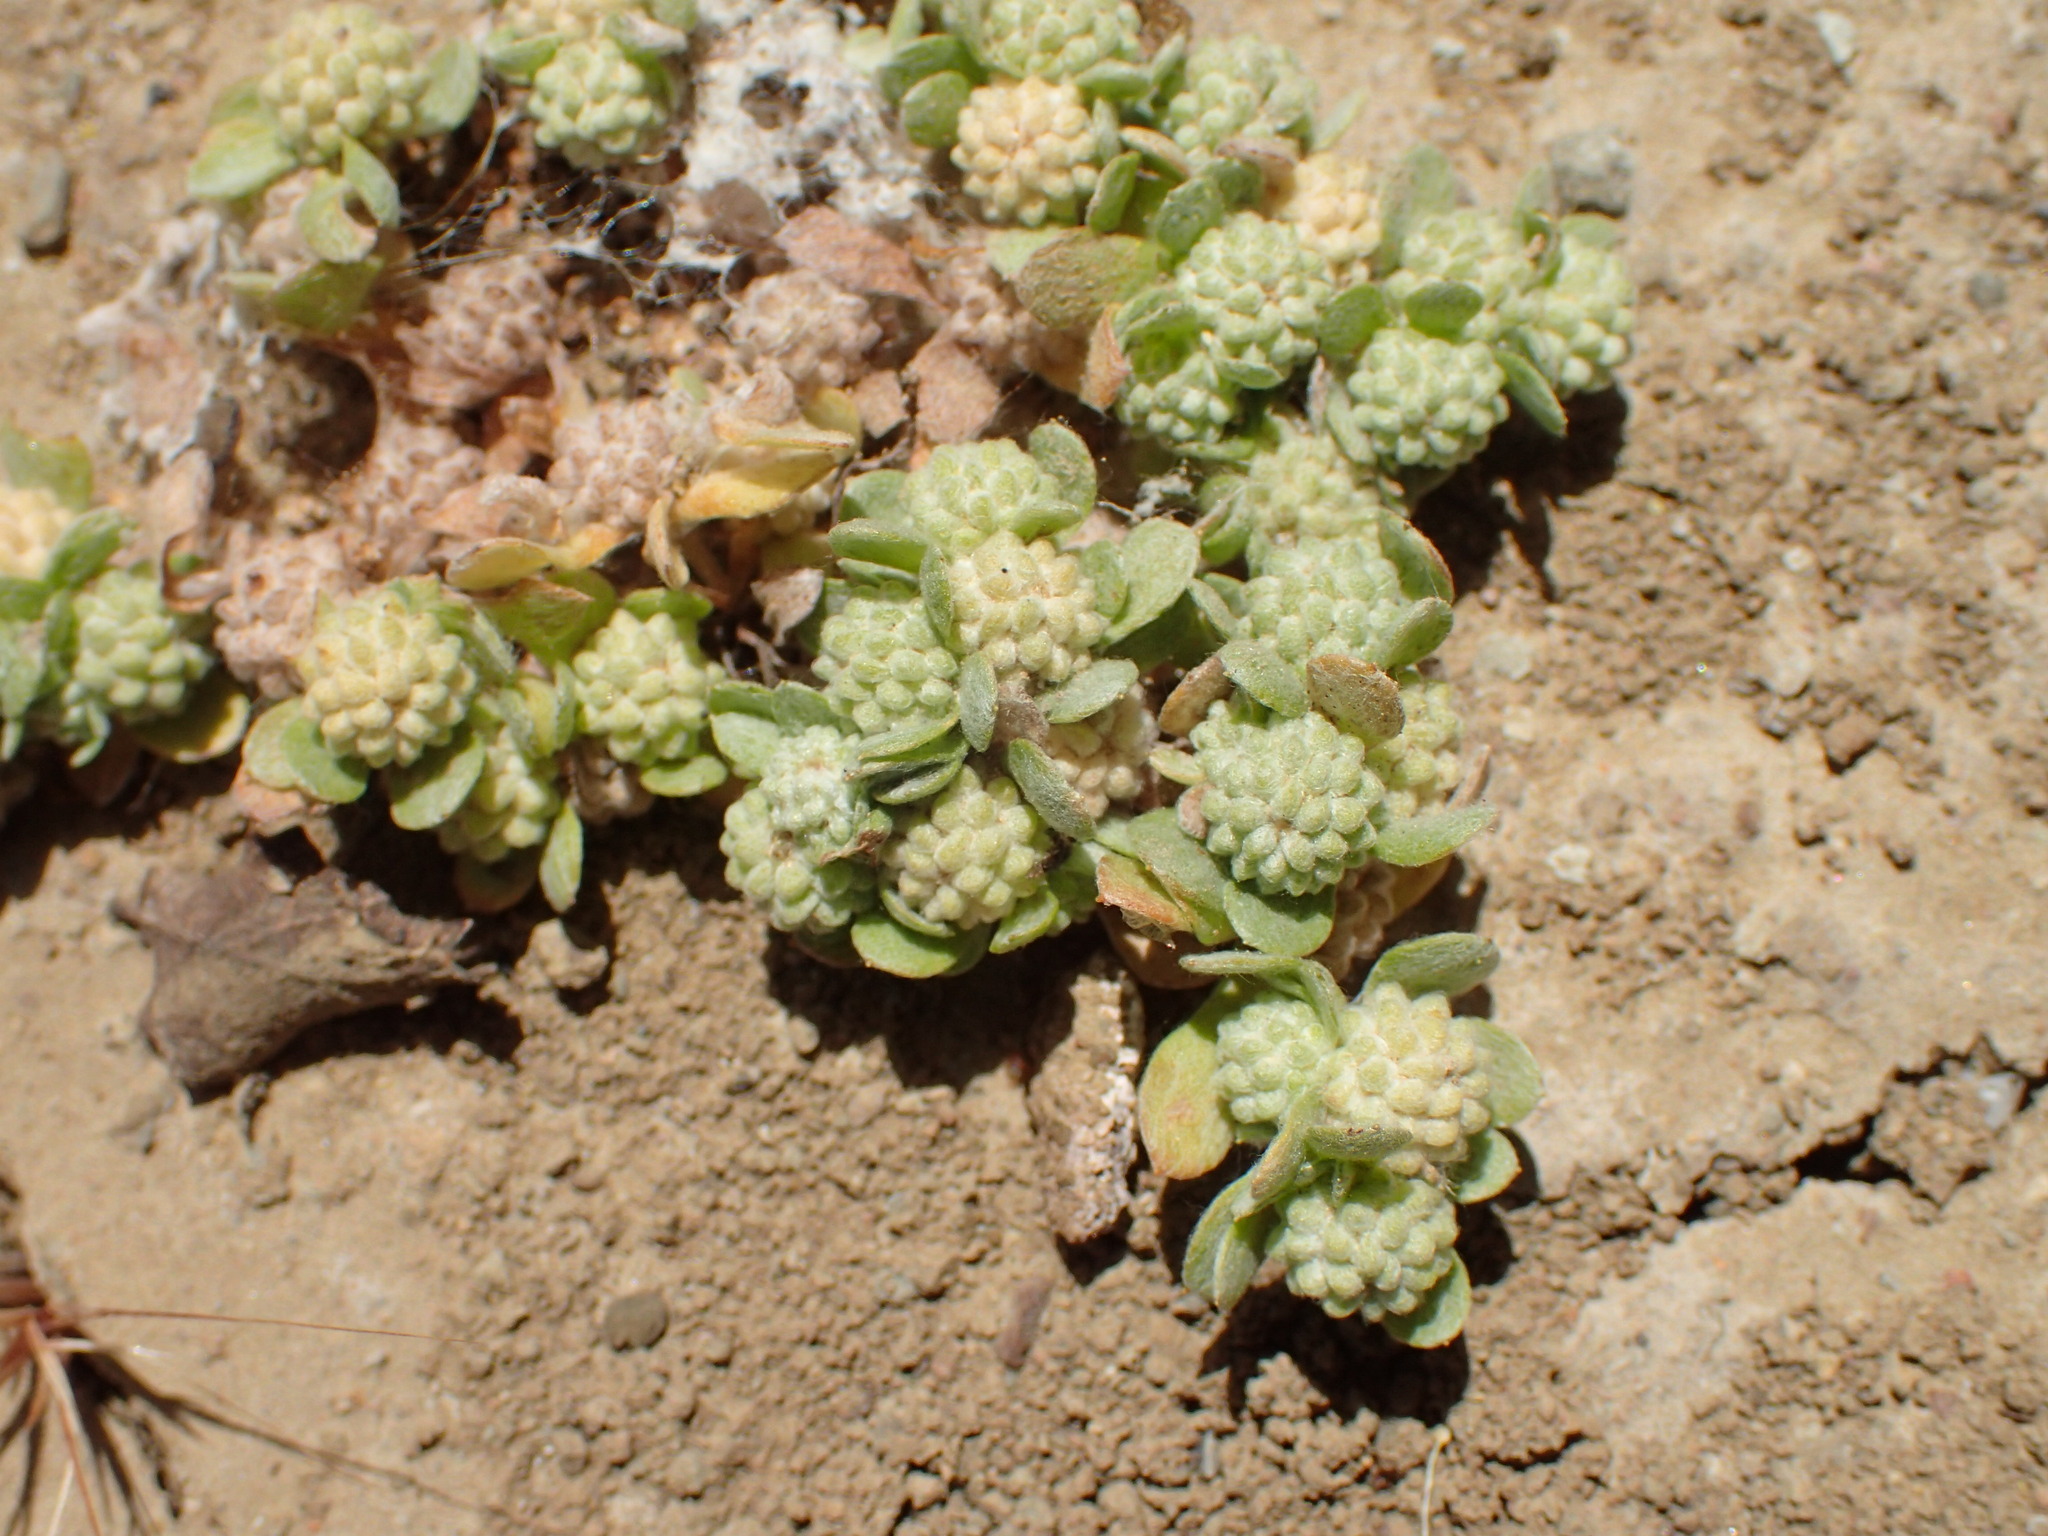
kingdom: Plantae
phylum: Tracheophyta
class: Magnoliopsida
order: Asterales
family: Asteraceae
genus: Psilocarphus
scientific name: Psilocarphus tenellus
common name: Slender woolly-marbles
